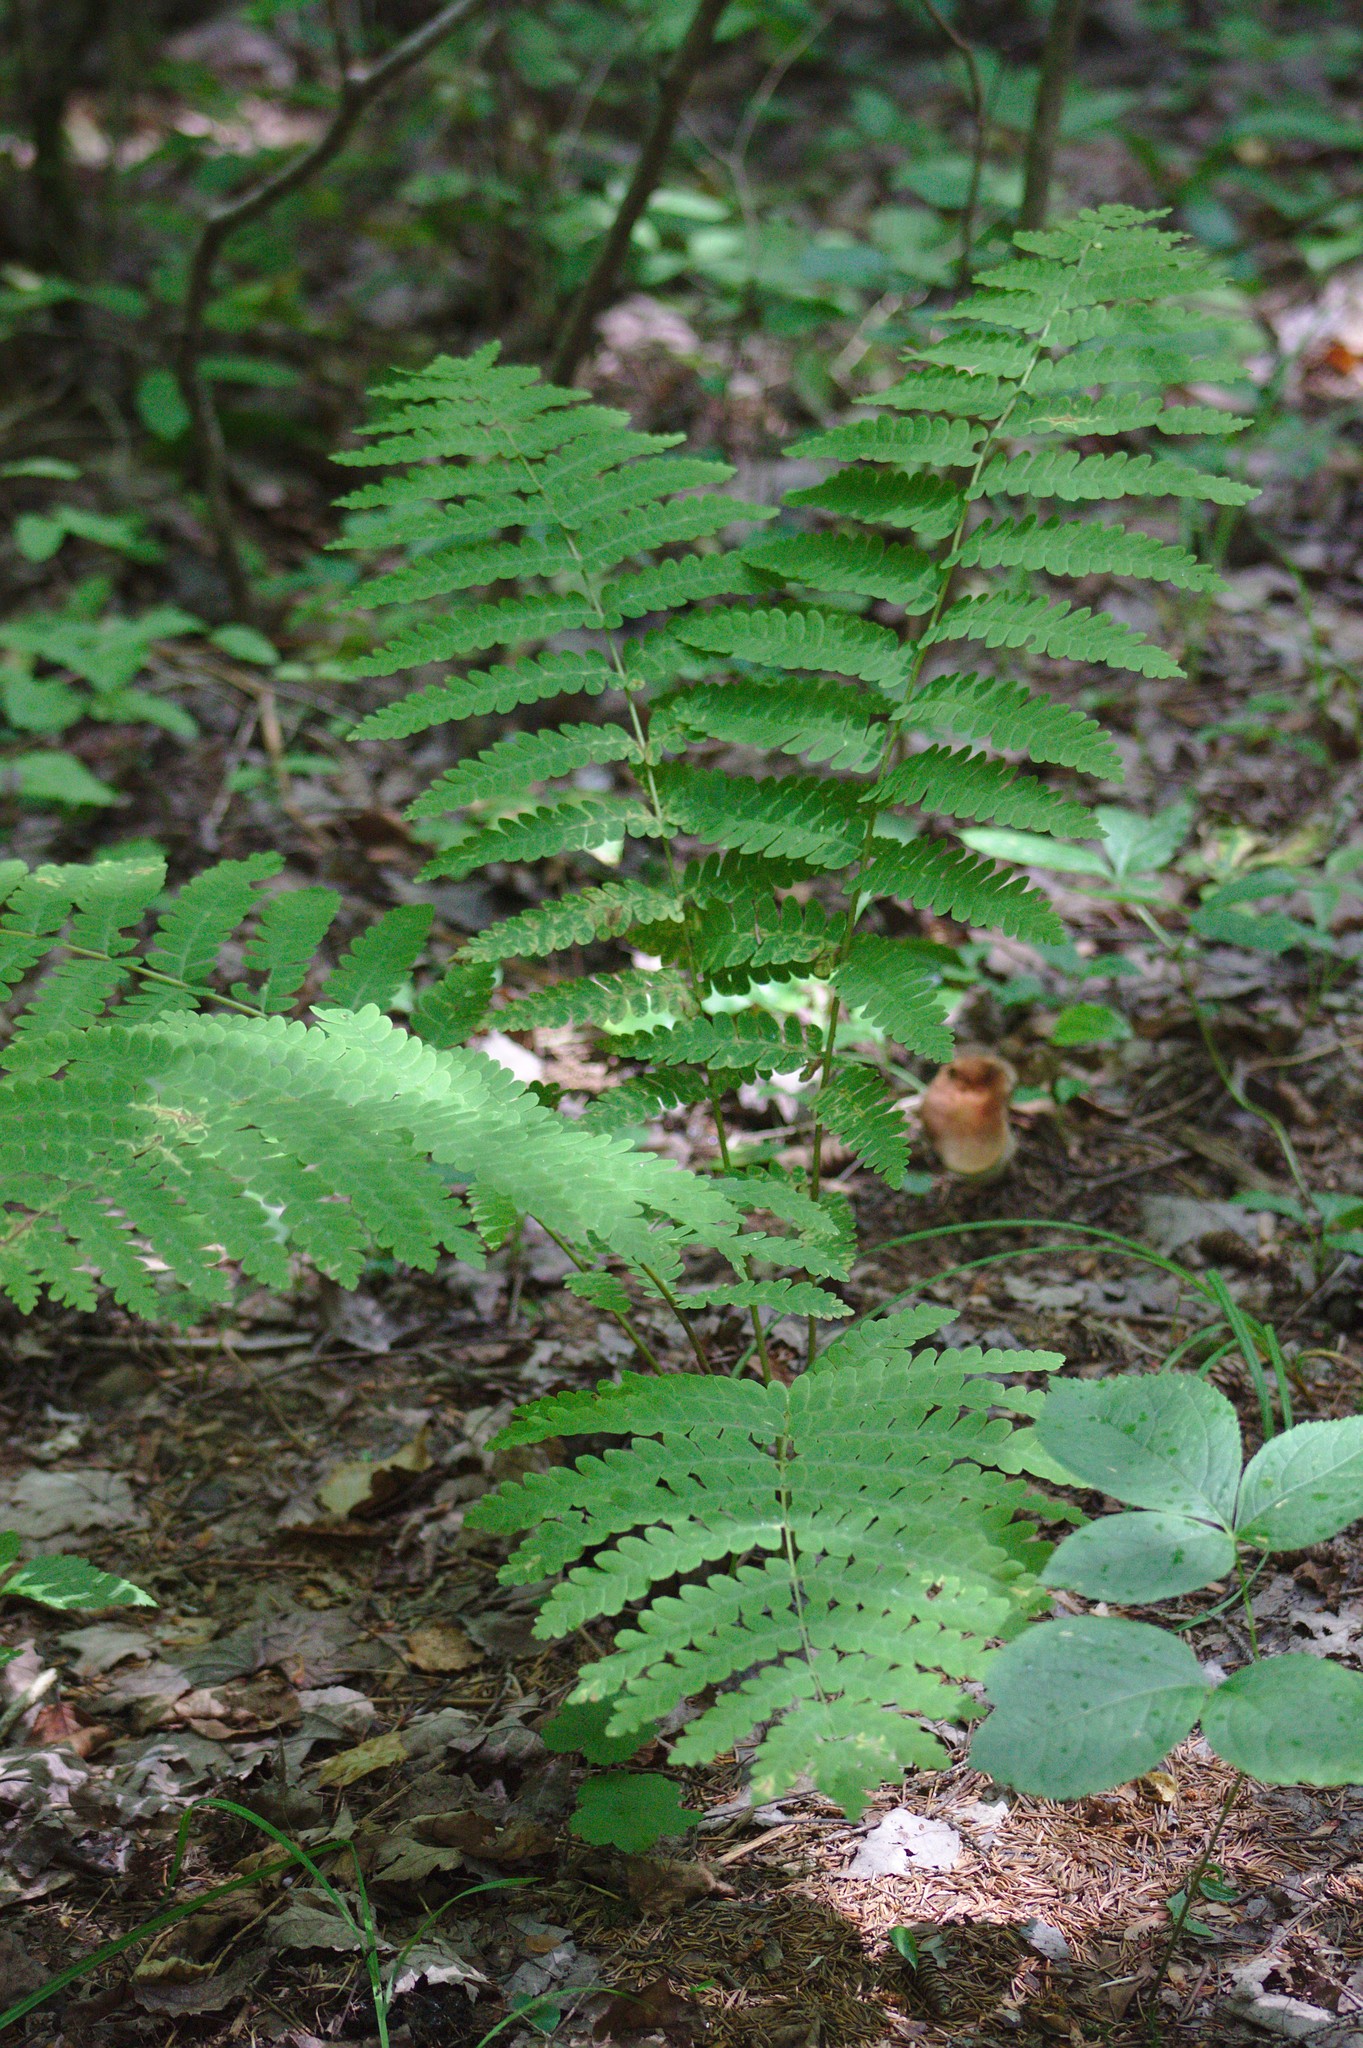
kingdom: Plantae
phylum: Tracheophyta
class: Polypodiopsida
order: Osmundales
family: Osmundaceae
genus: Claytosmunda
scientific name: Claytosmunda claytoniana
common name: Clayton's fern
